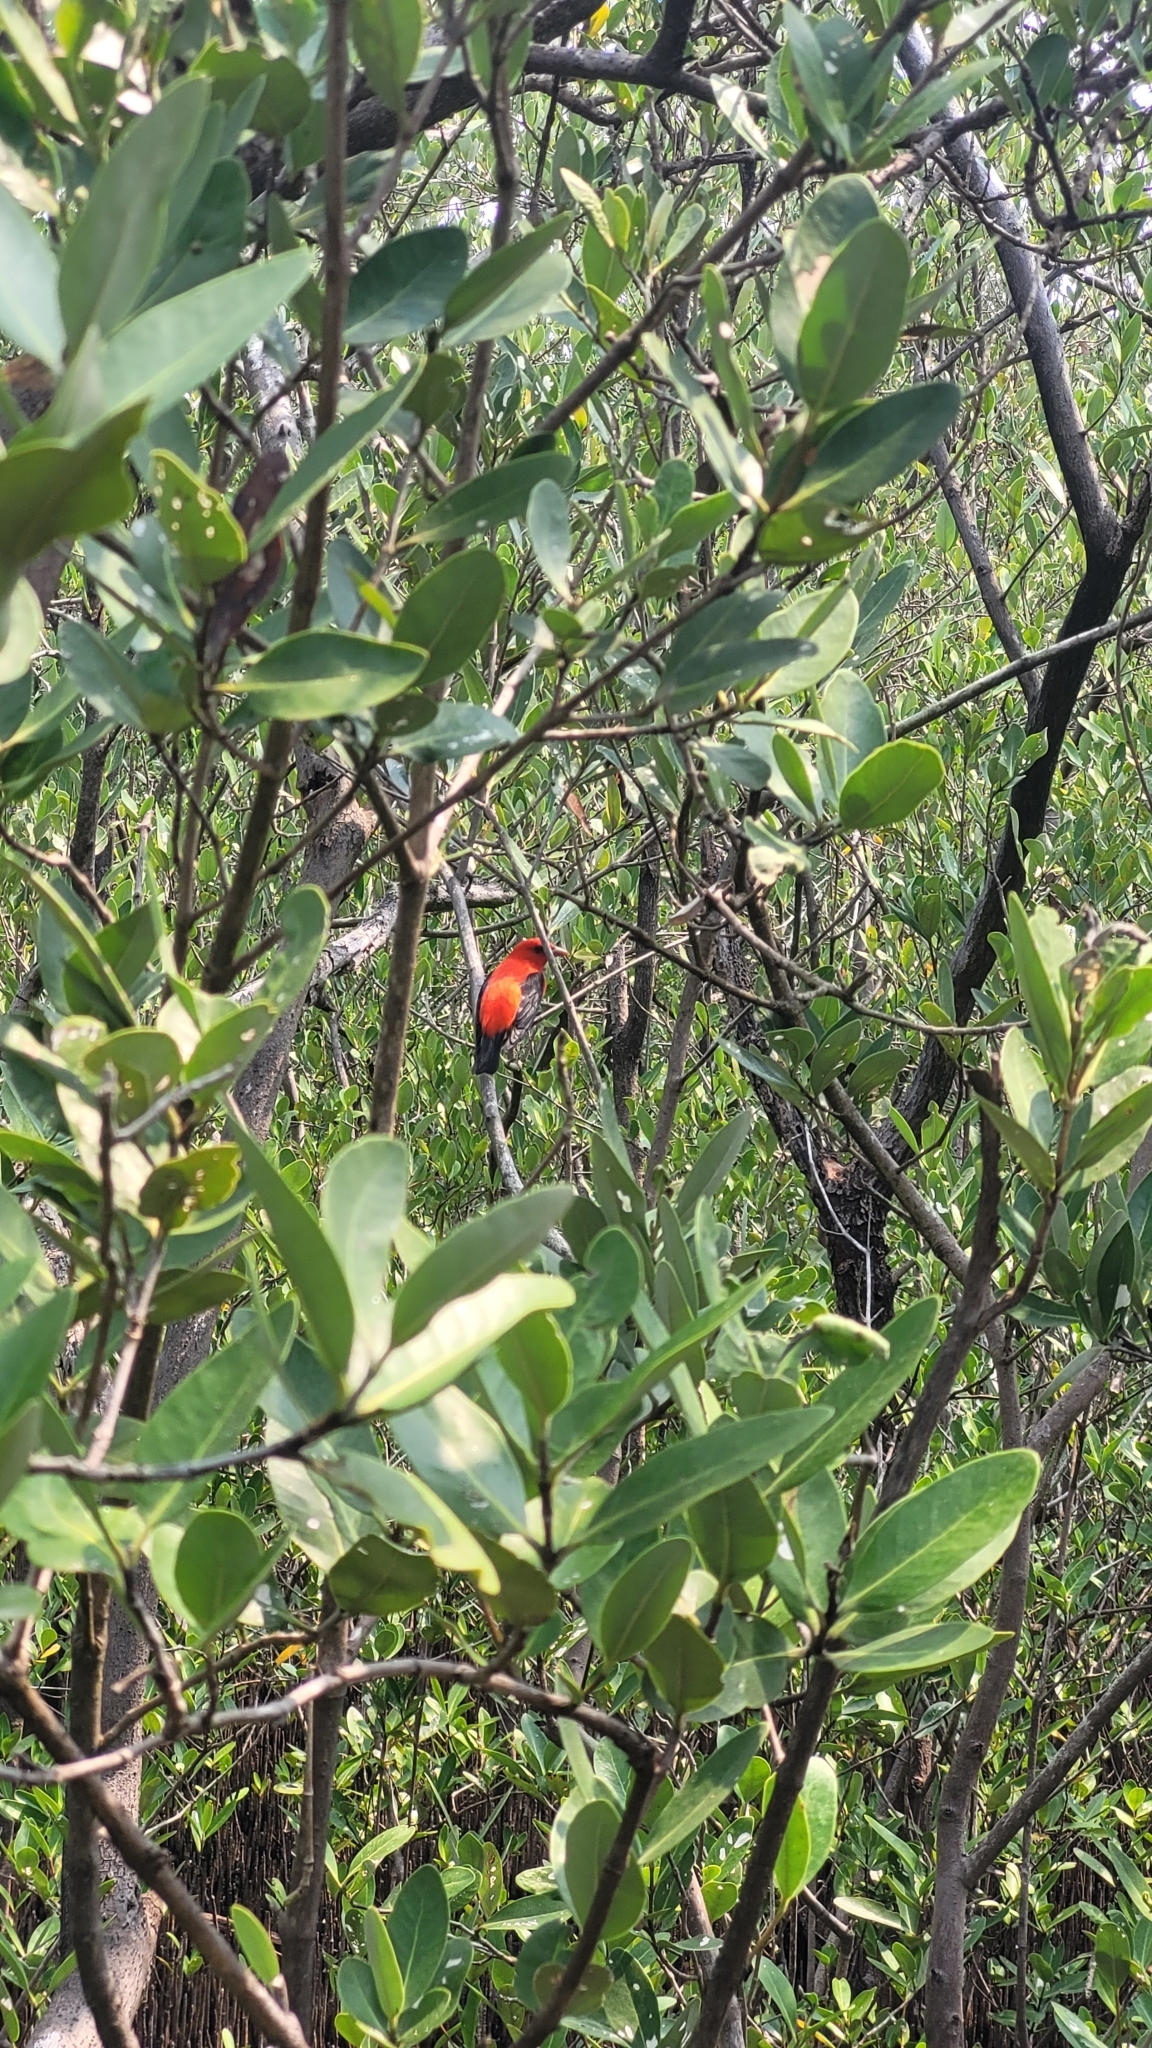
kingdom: Animalia
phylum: Chordata
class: Aves
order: Passeriformes
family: Cardinalidae
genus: Piranga
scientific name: Piranga olivacea
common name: Scarlet tanager
